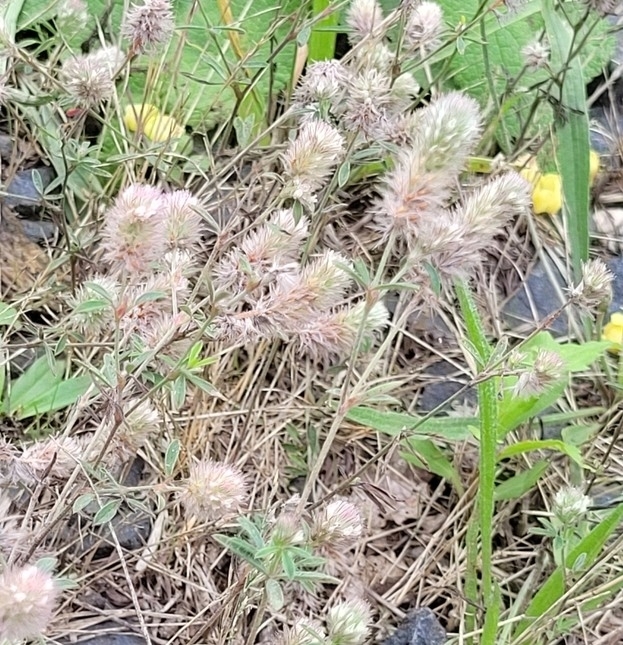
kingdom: Plantae
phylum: Tracheophyta
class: Magnoliopsida
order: Fabales
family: Fabaceae
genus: Trifolium
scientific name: Trifolium arvense
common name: Hare's-foot clover
